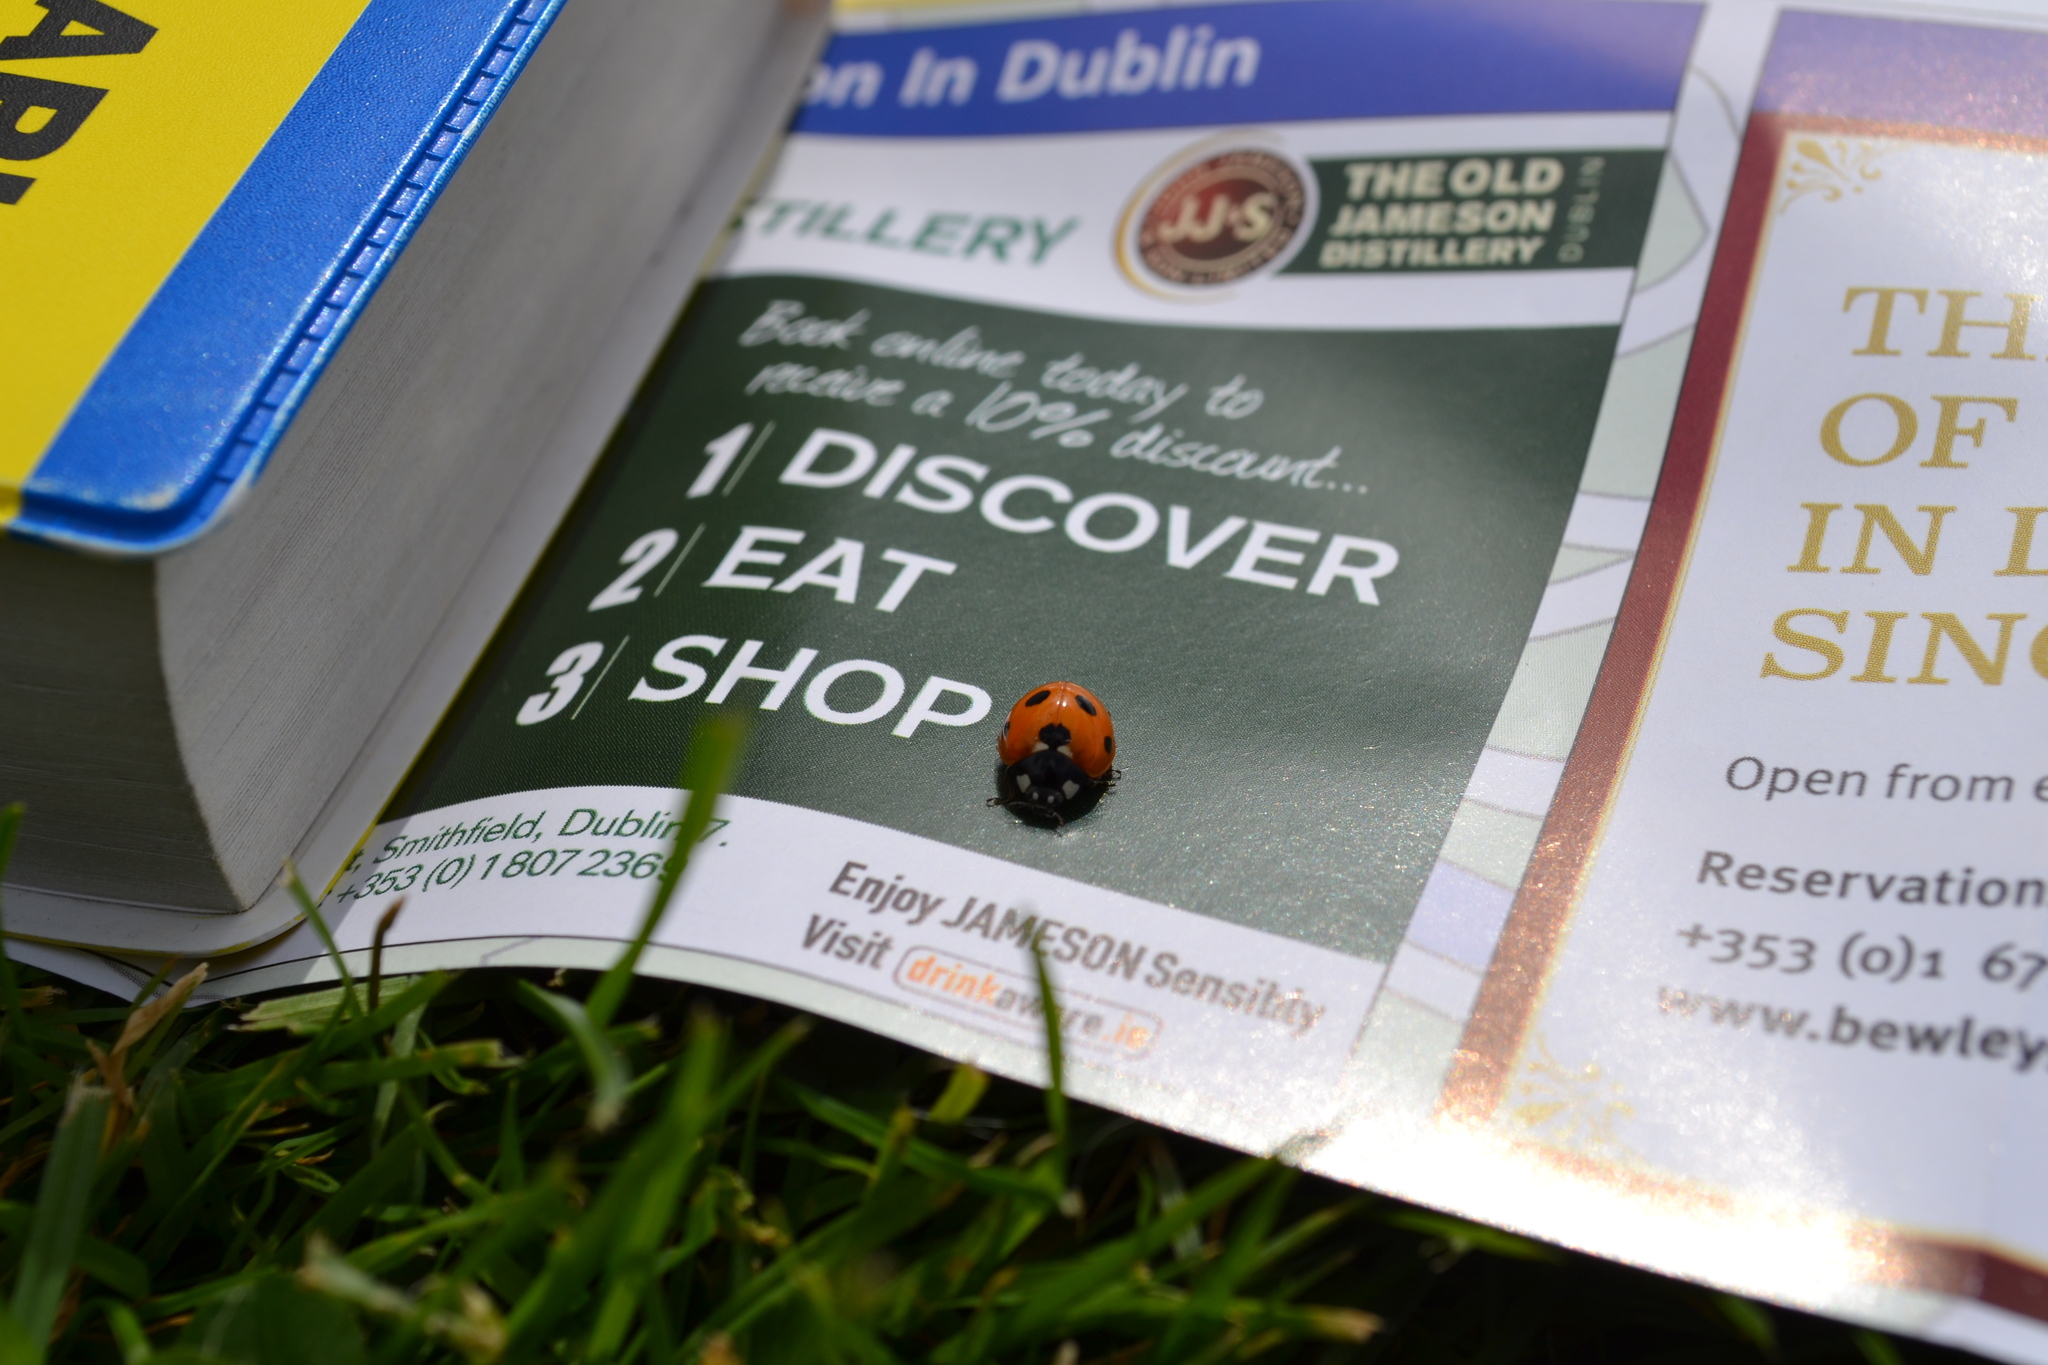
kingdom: Animalia
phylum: Arthropoda
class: Insecta
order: Coleoptera
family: Coccinellidae
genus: Coccinella
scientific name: Coccinella septempunctata
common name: Sevenspotted lady beetle
